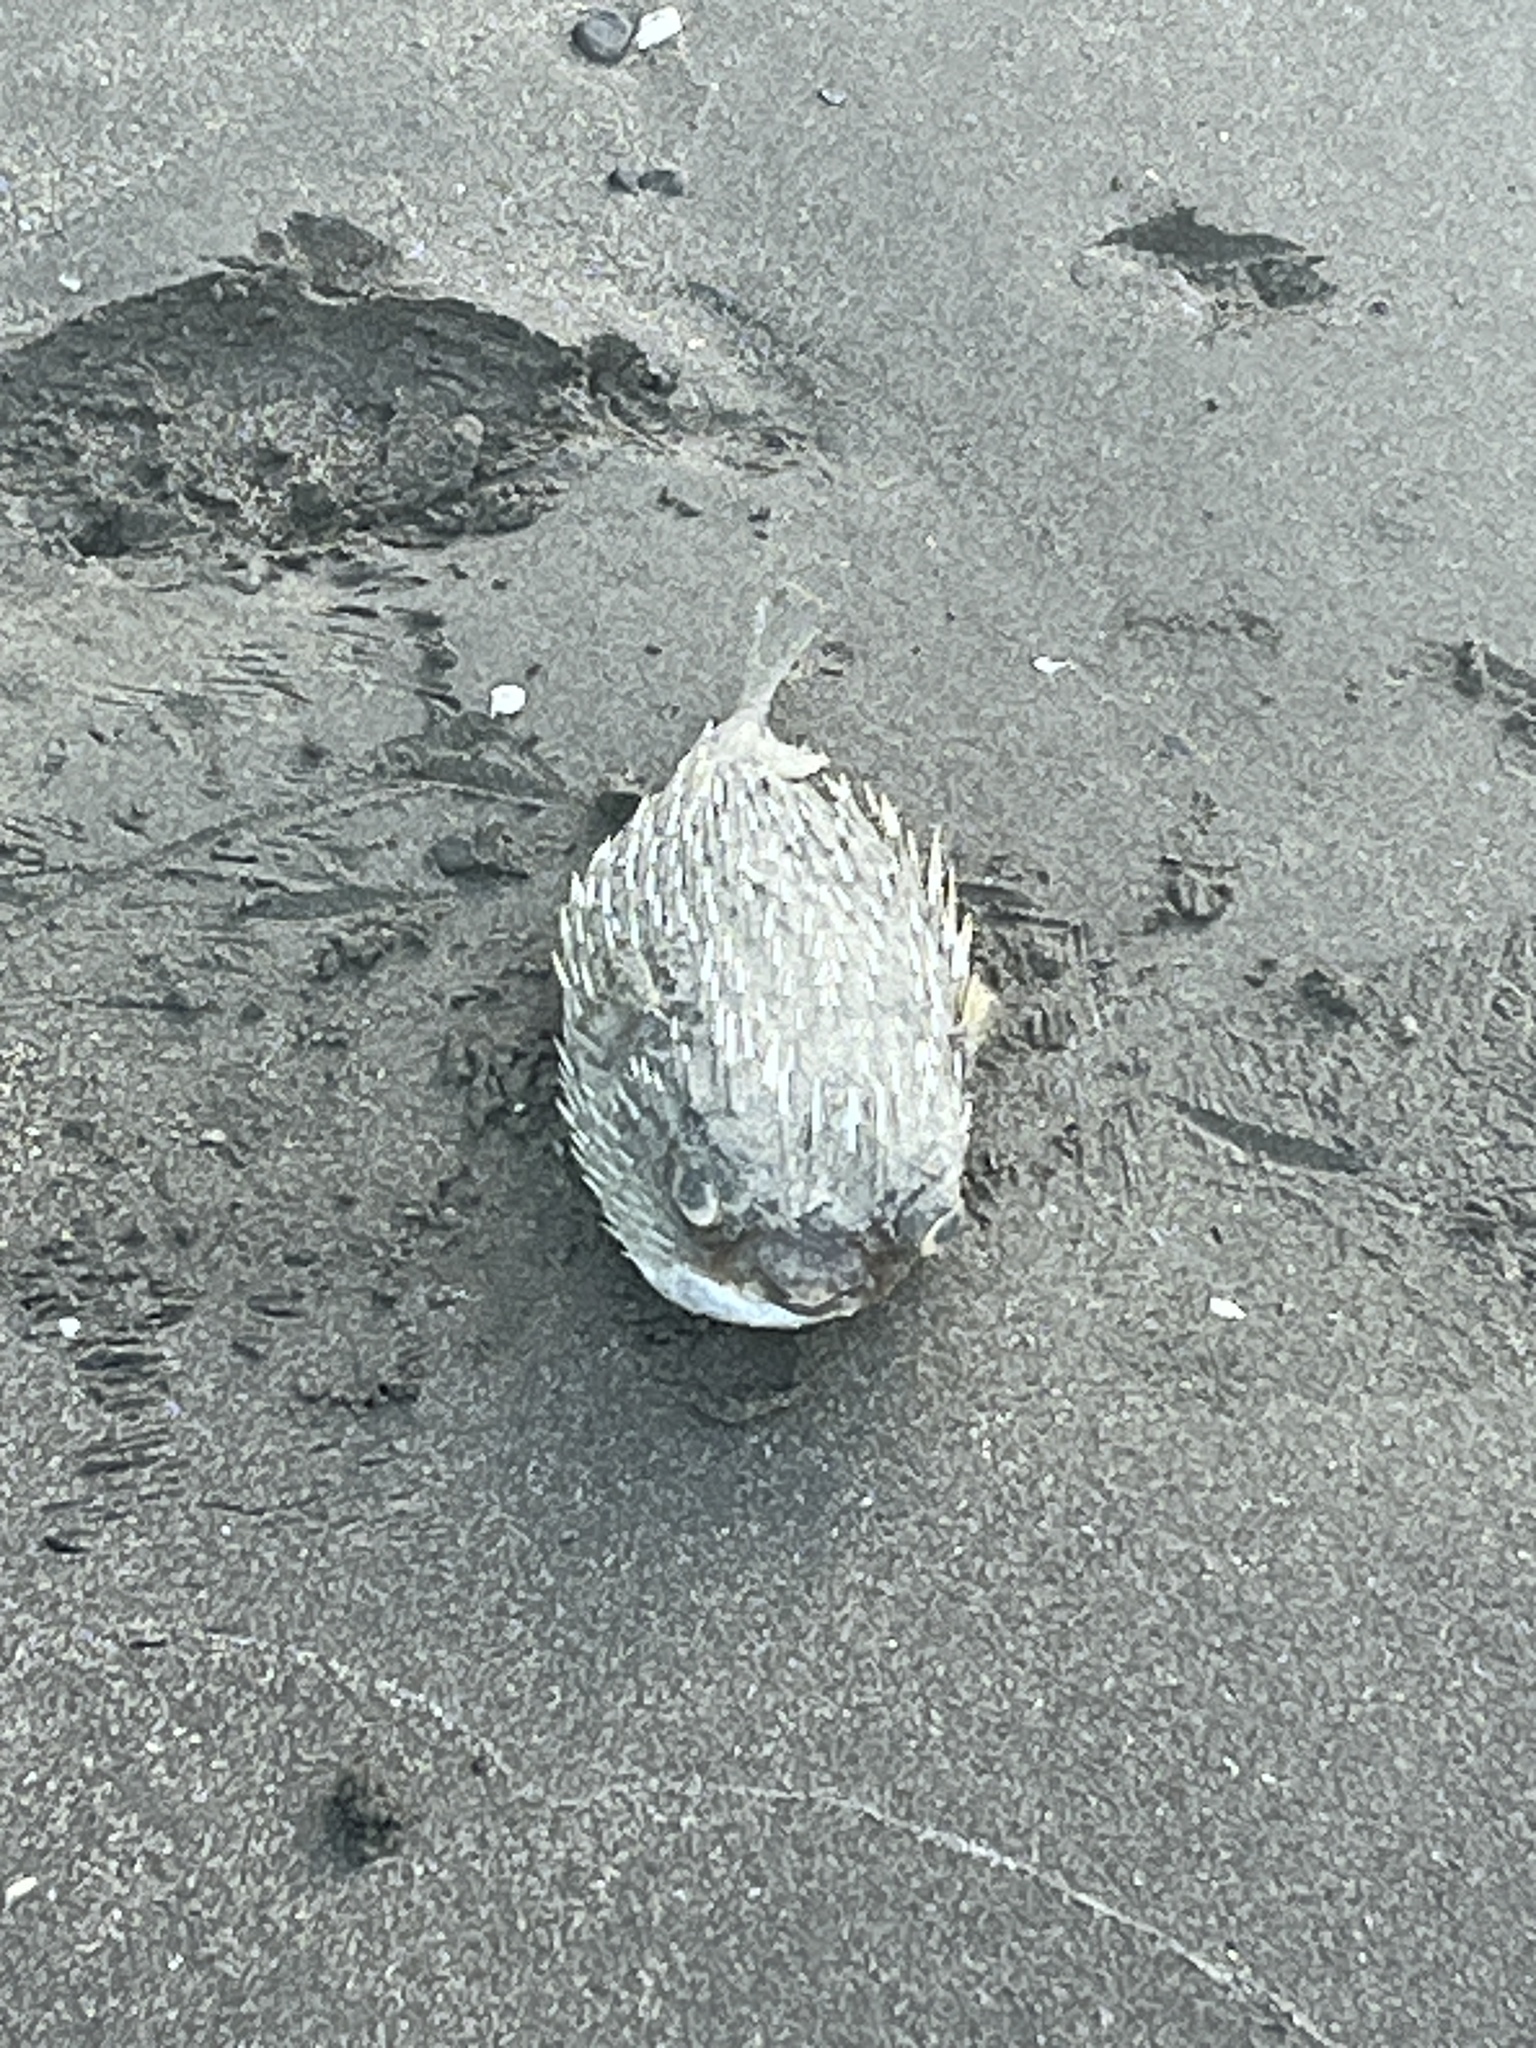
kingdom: Animalia
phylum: Chordata
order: Tetraodontiformes
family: Diodontidae
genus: Diodon
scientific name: Diodon holocanthus
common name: Balloonfish
